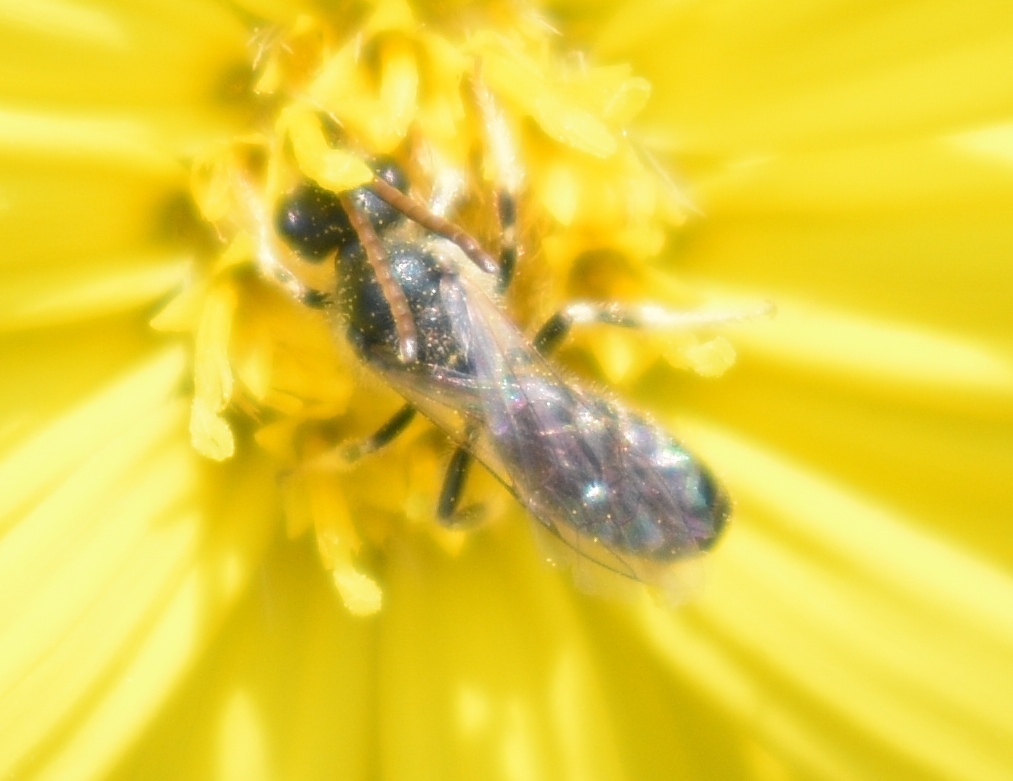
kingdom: Animalia
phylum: Arthropoda
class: Insecta
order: Hymenoptera
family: Halictidae
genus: Seladonia
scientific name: Seladonia
